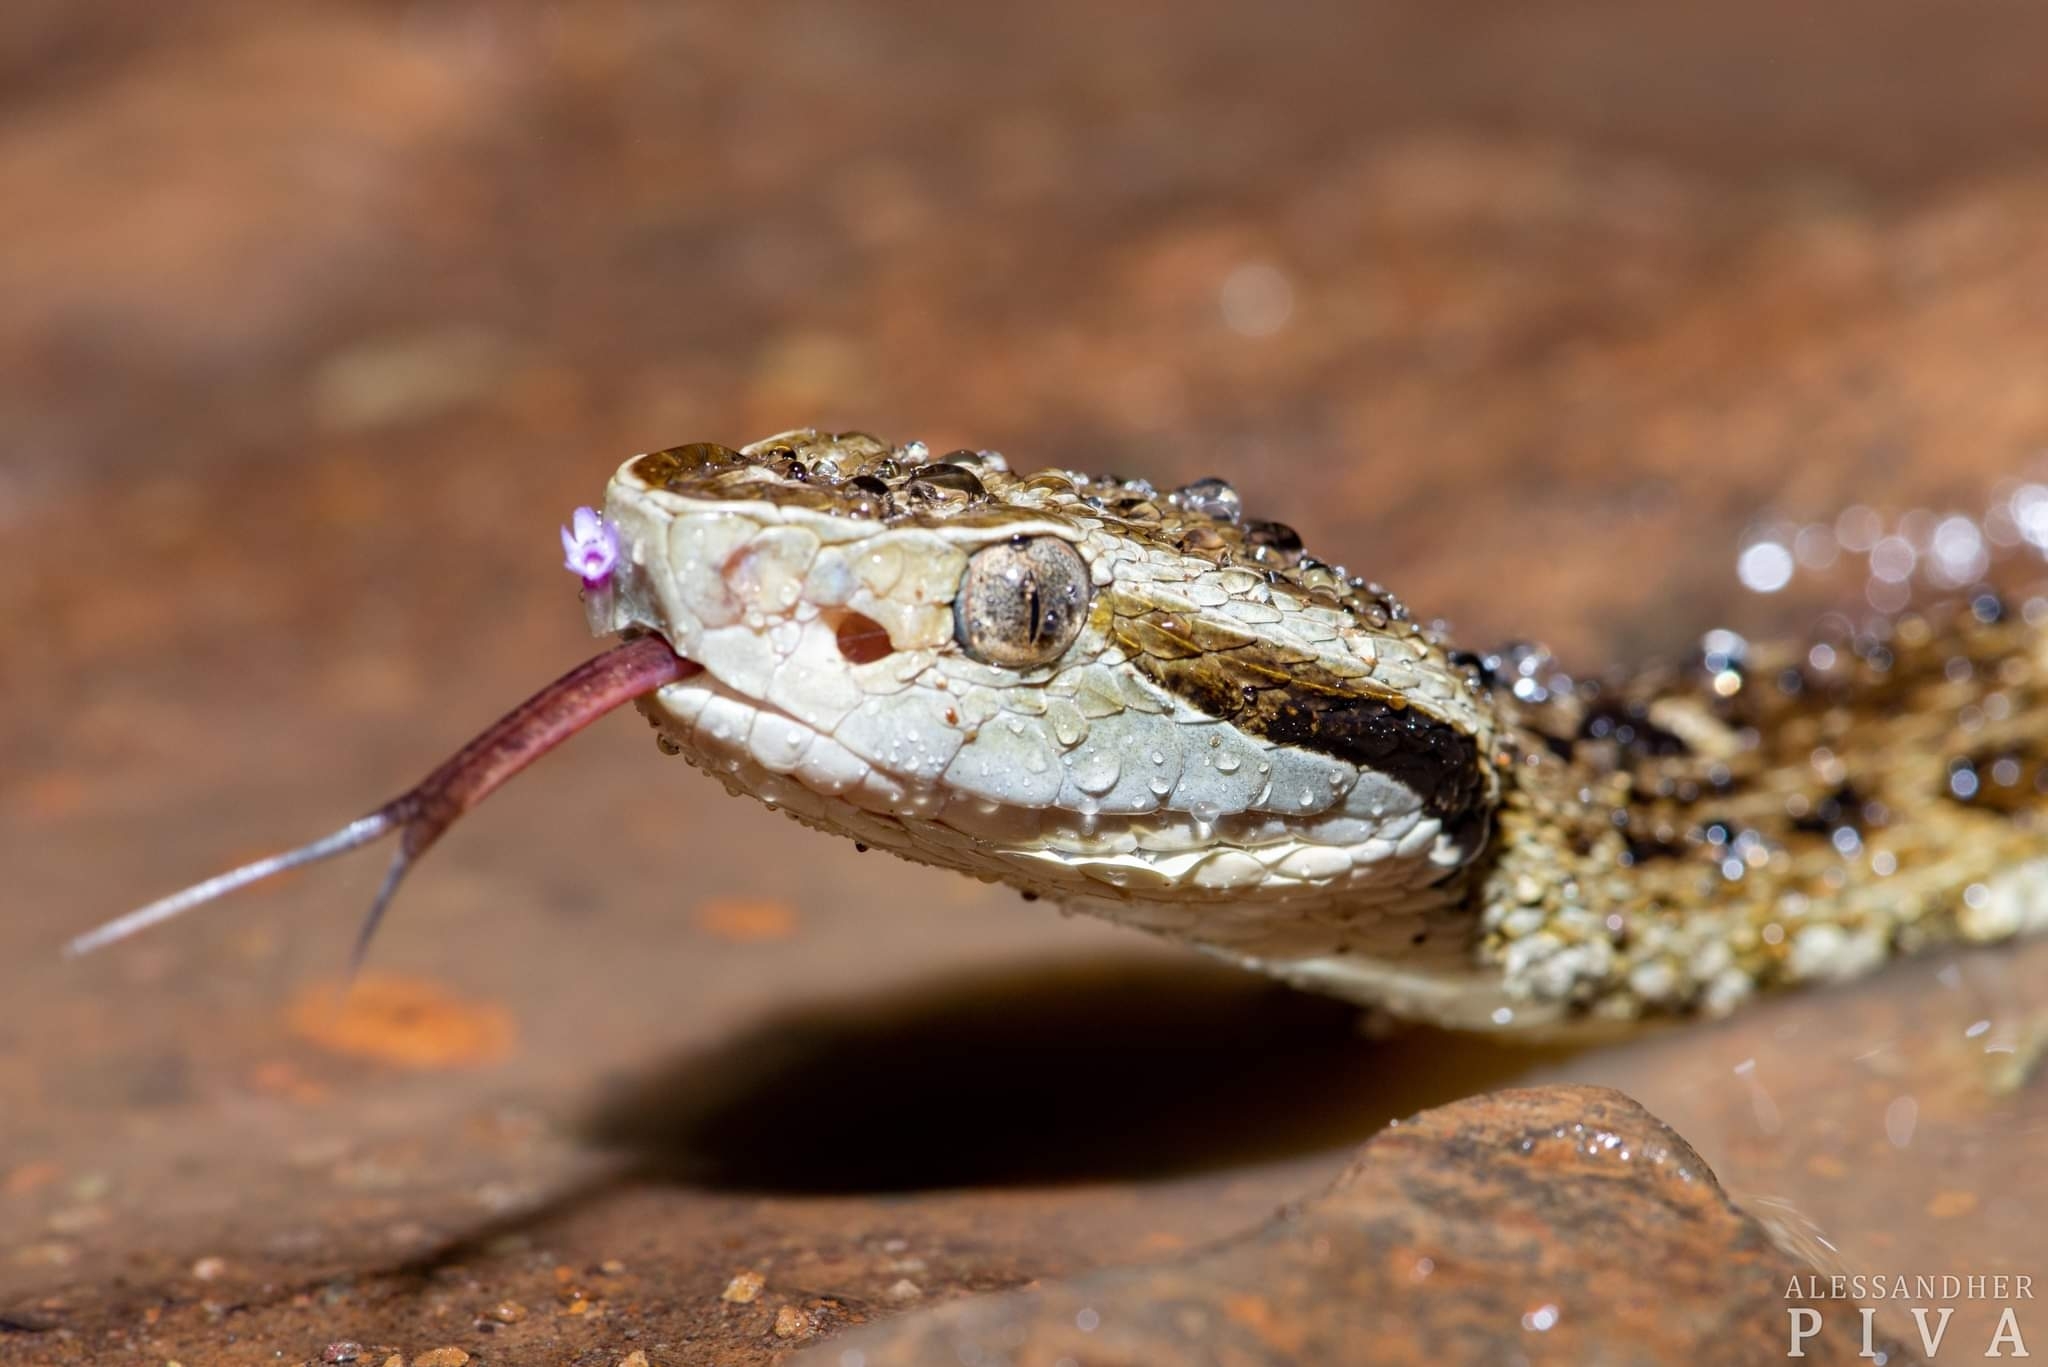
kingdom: Animalia
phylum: Chordata
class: Squamata
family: Viperidae
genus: Bothrops
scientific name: Bothrops jararaca
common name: Jararaca
